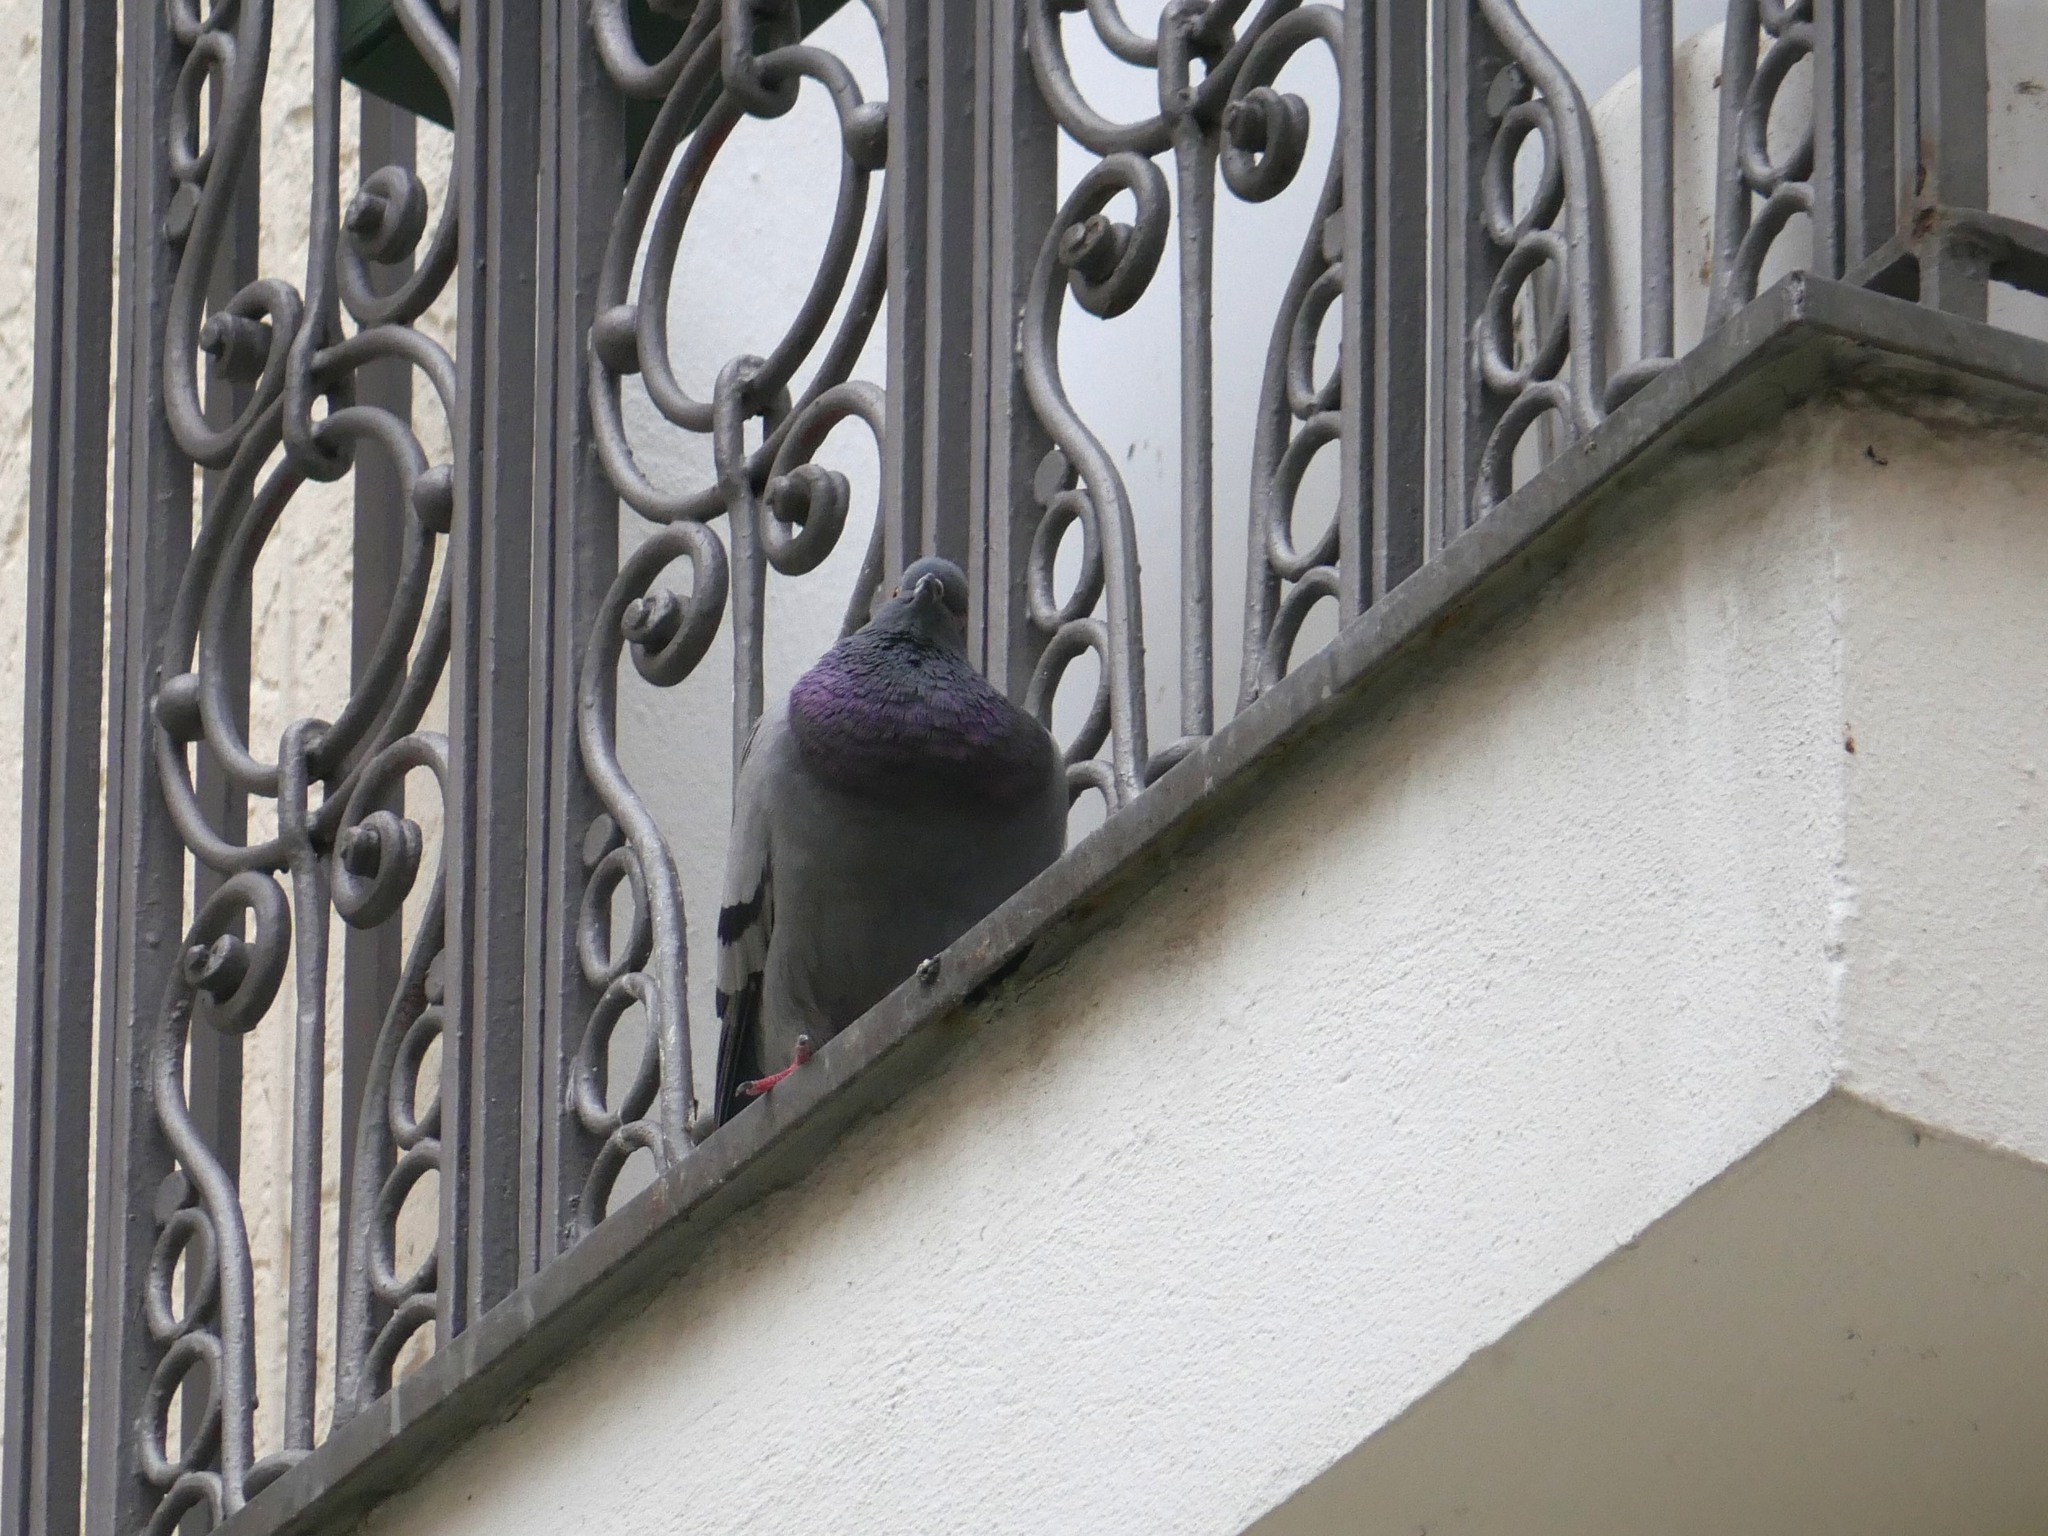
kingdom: Animalia
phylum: Chordata
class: Aves
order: Columbiformes
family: Columbidae
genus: Columba
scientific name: Columba livia
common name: Rock pigeon
